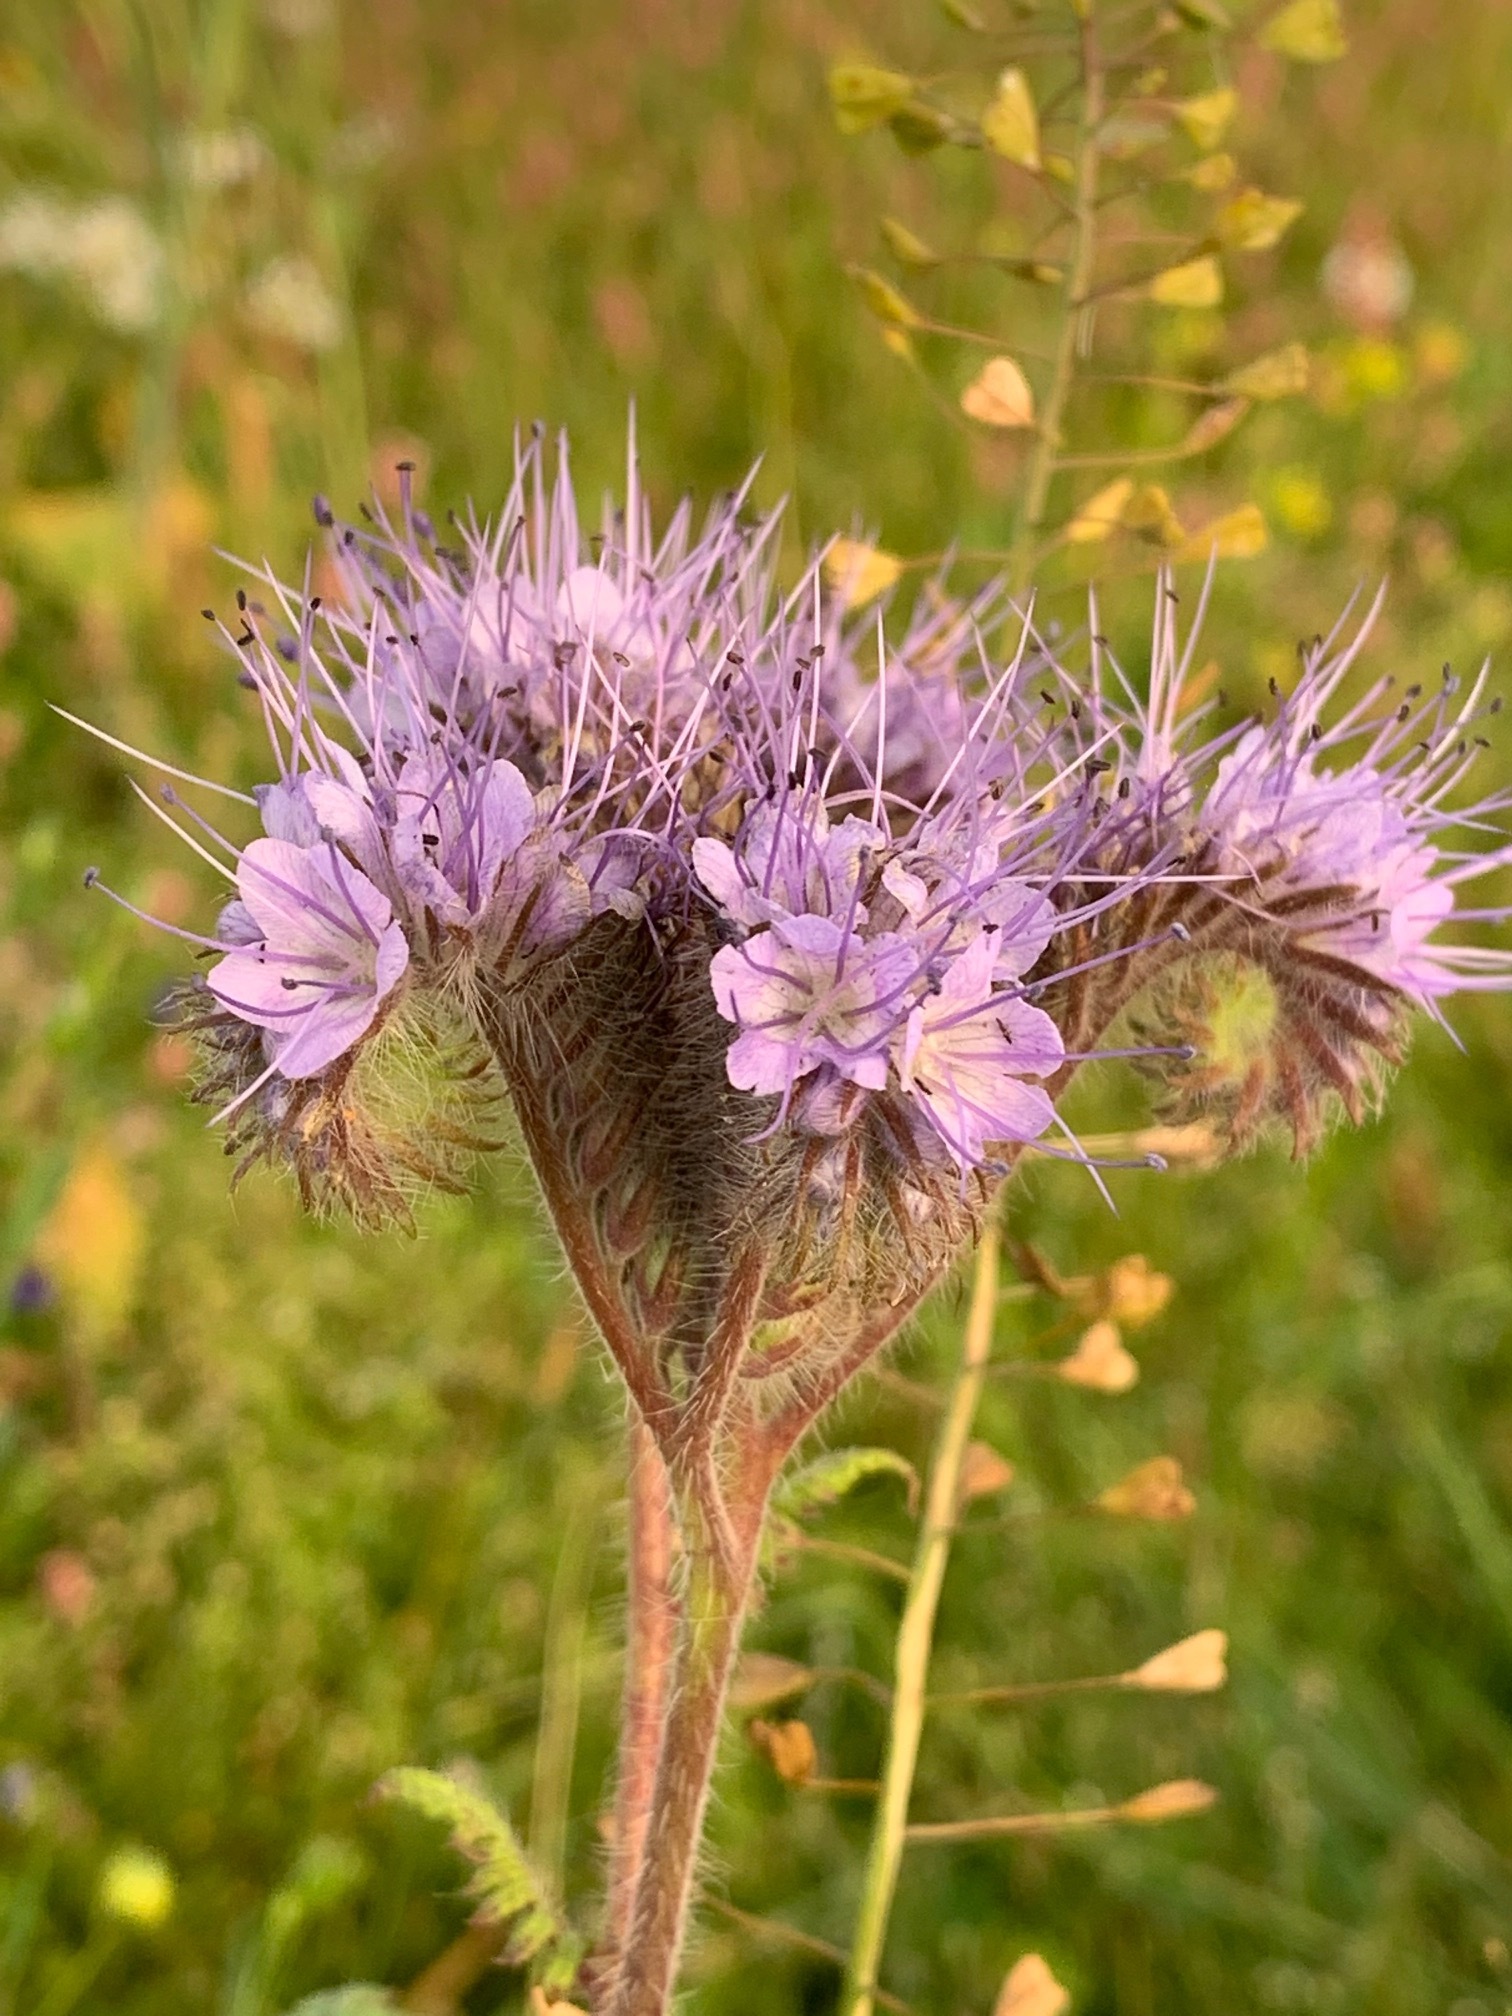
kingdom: Plantae
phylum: Tracheophyta
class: Magnoliopsida
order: Boraginales
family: Hydrophyllaceae
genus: Phacelia
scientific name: Phacelia tanacetifolia
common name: Phacelia
